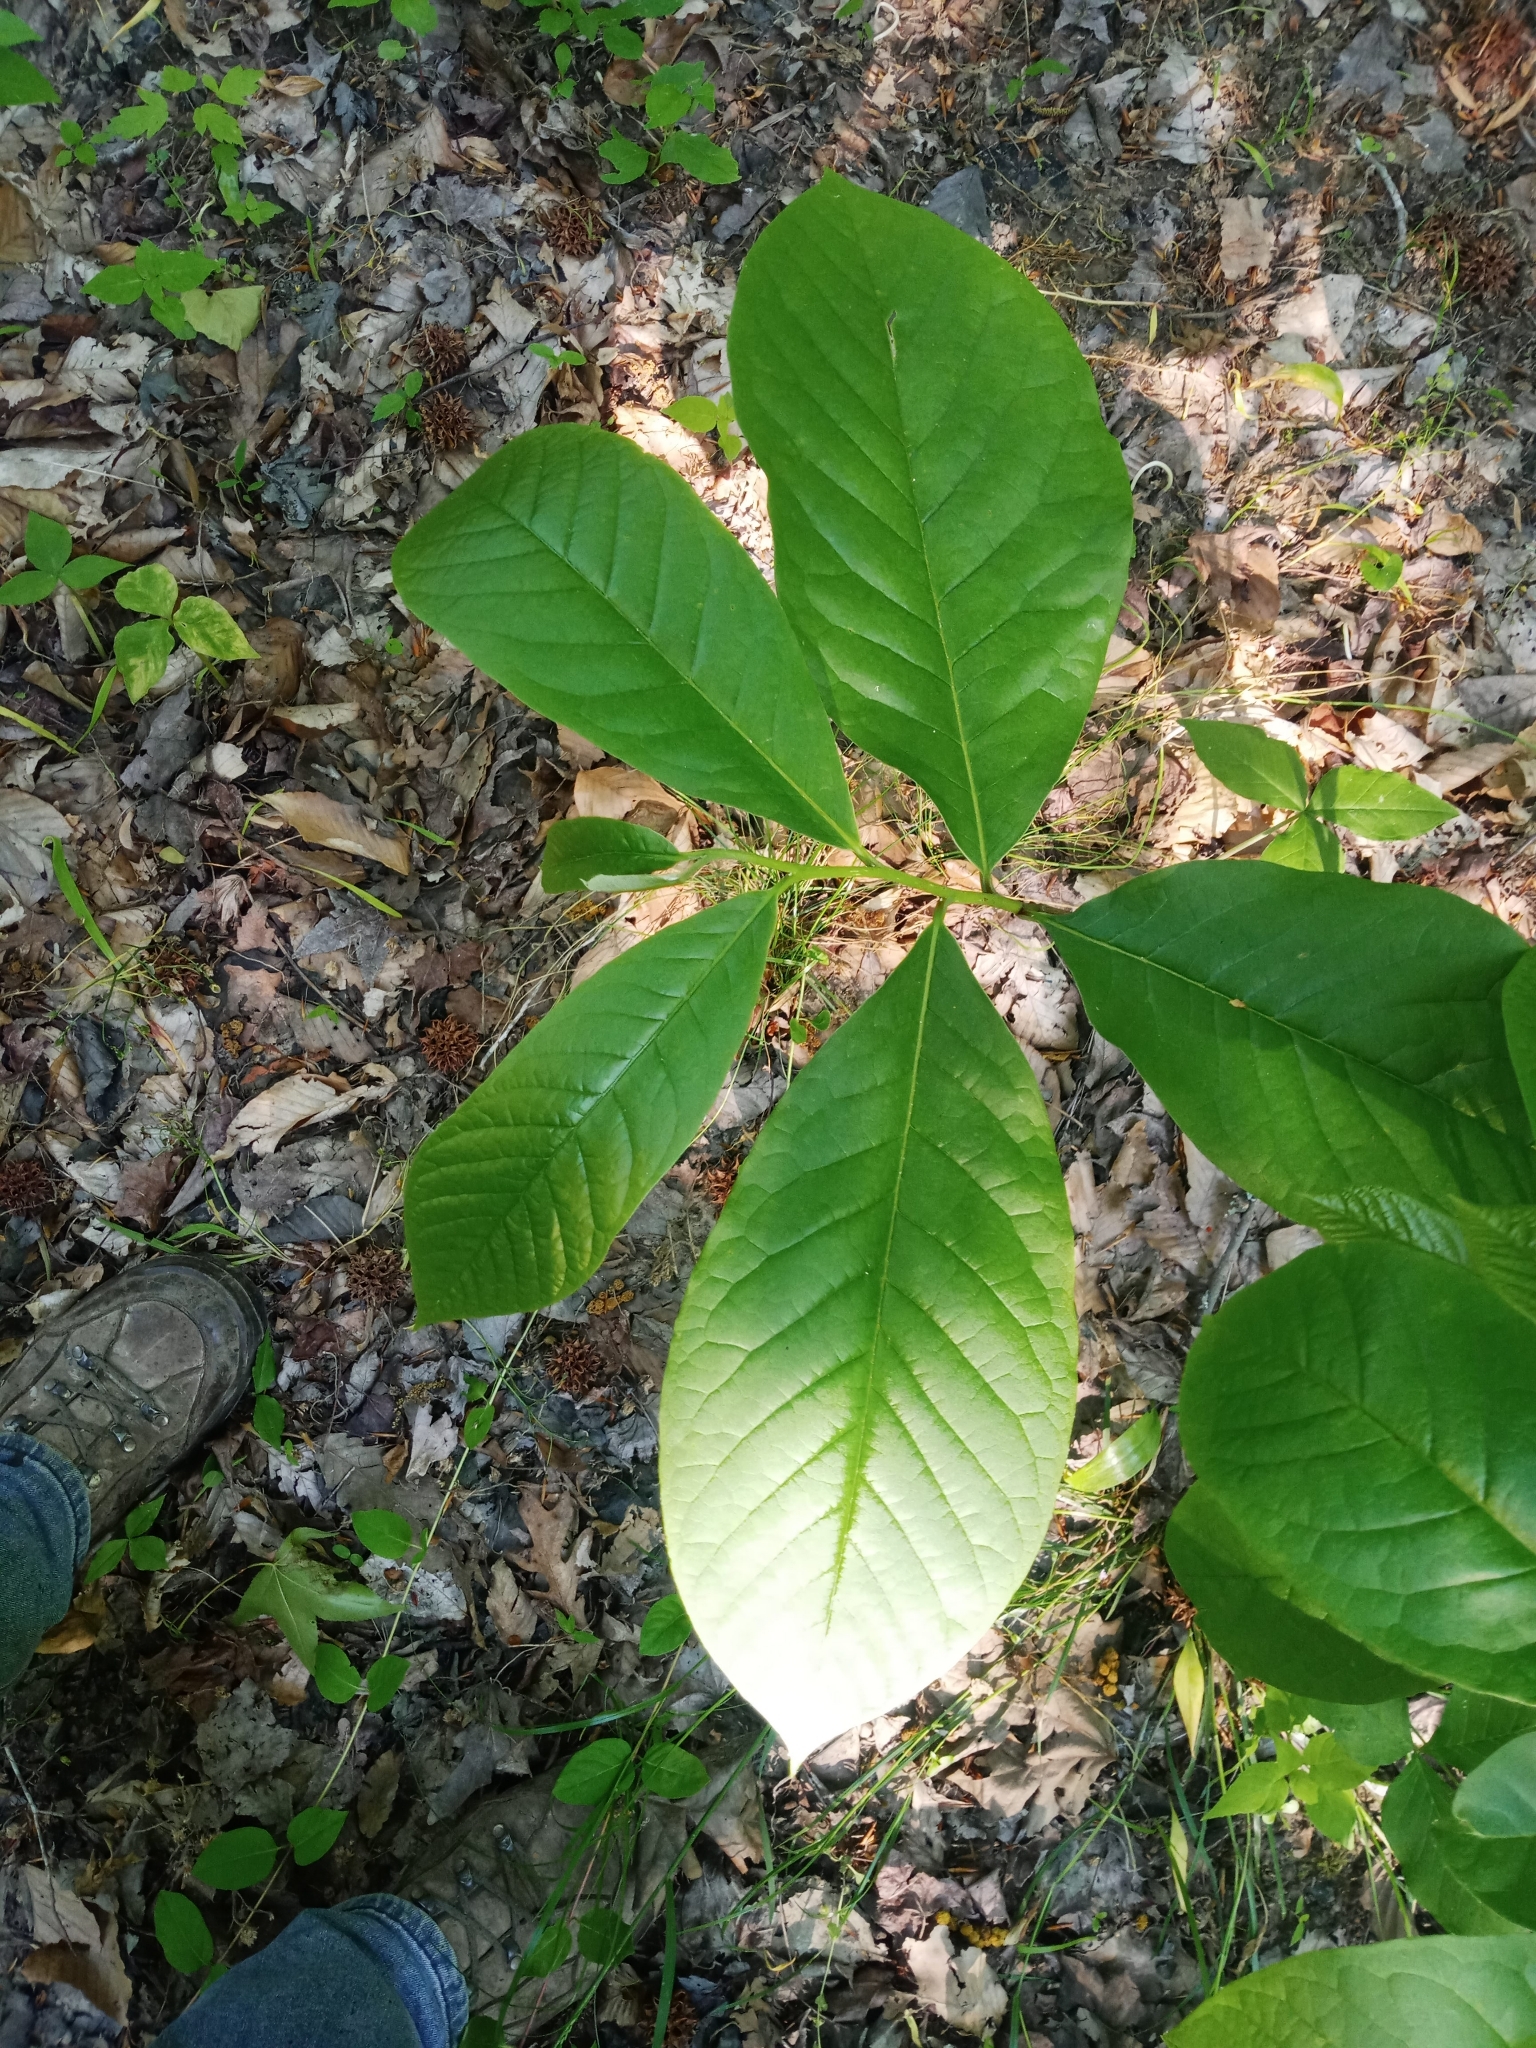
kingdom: Plantae
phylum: Tracheophyta
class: Magnoliopsida
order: Magnoliales
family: Annonaceae
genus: Asimina
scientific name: Asimina triloba
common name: Dog-banana
